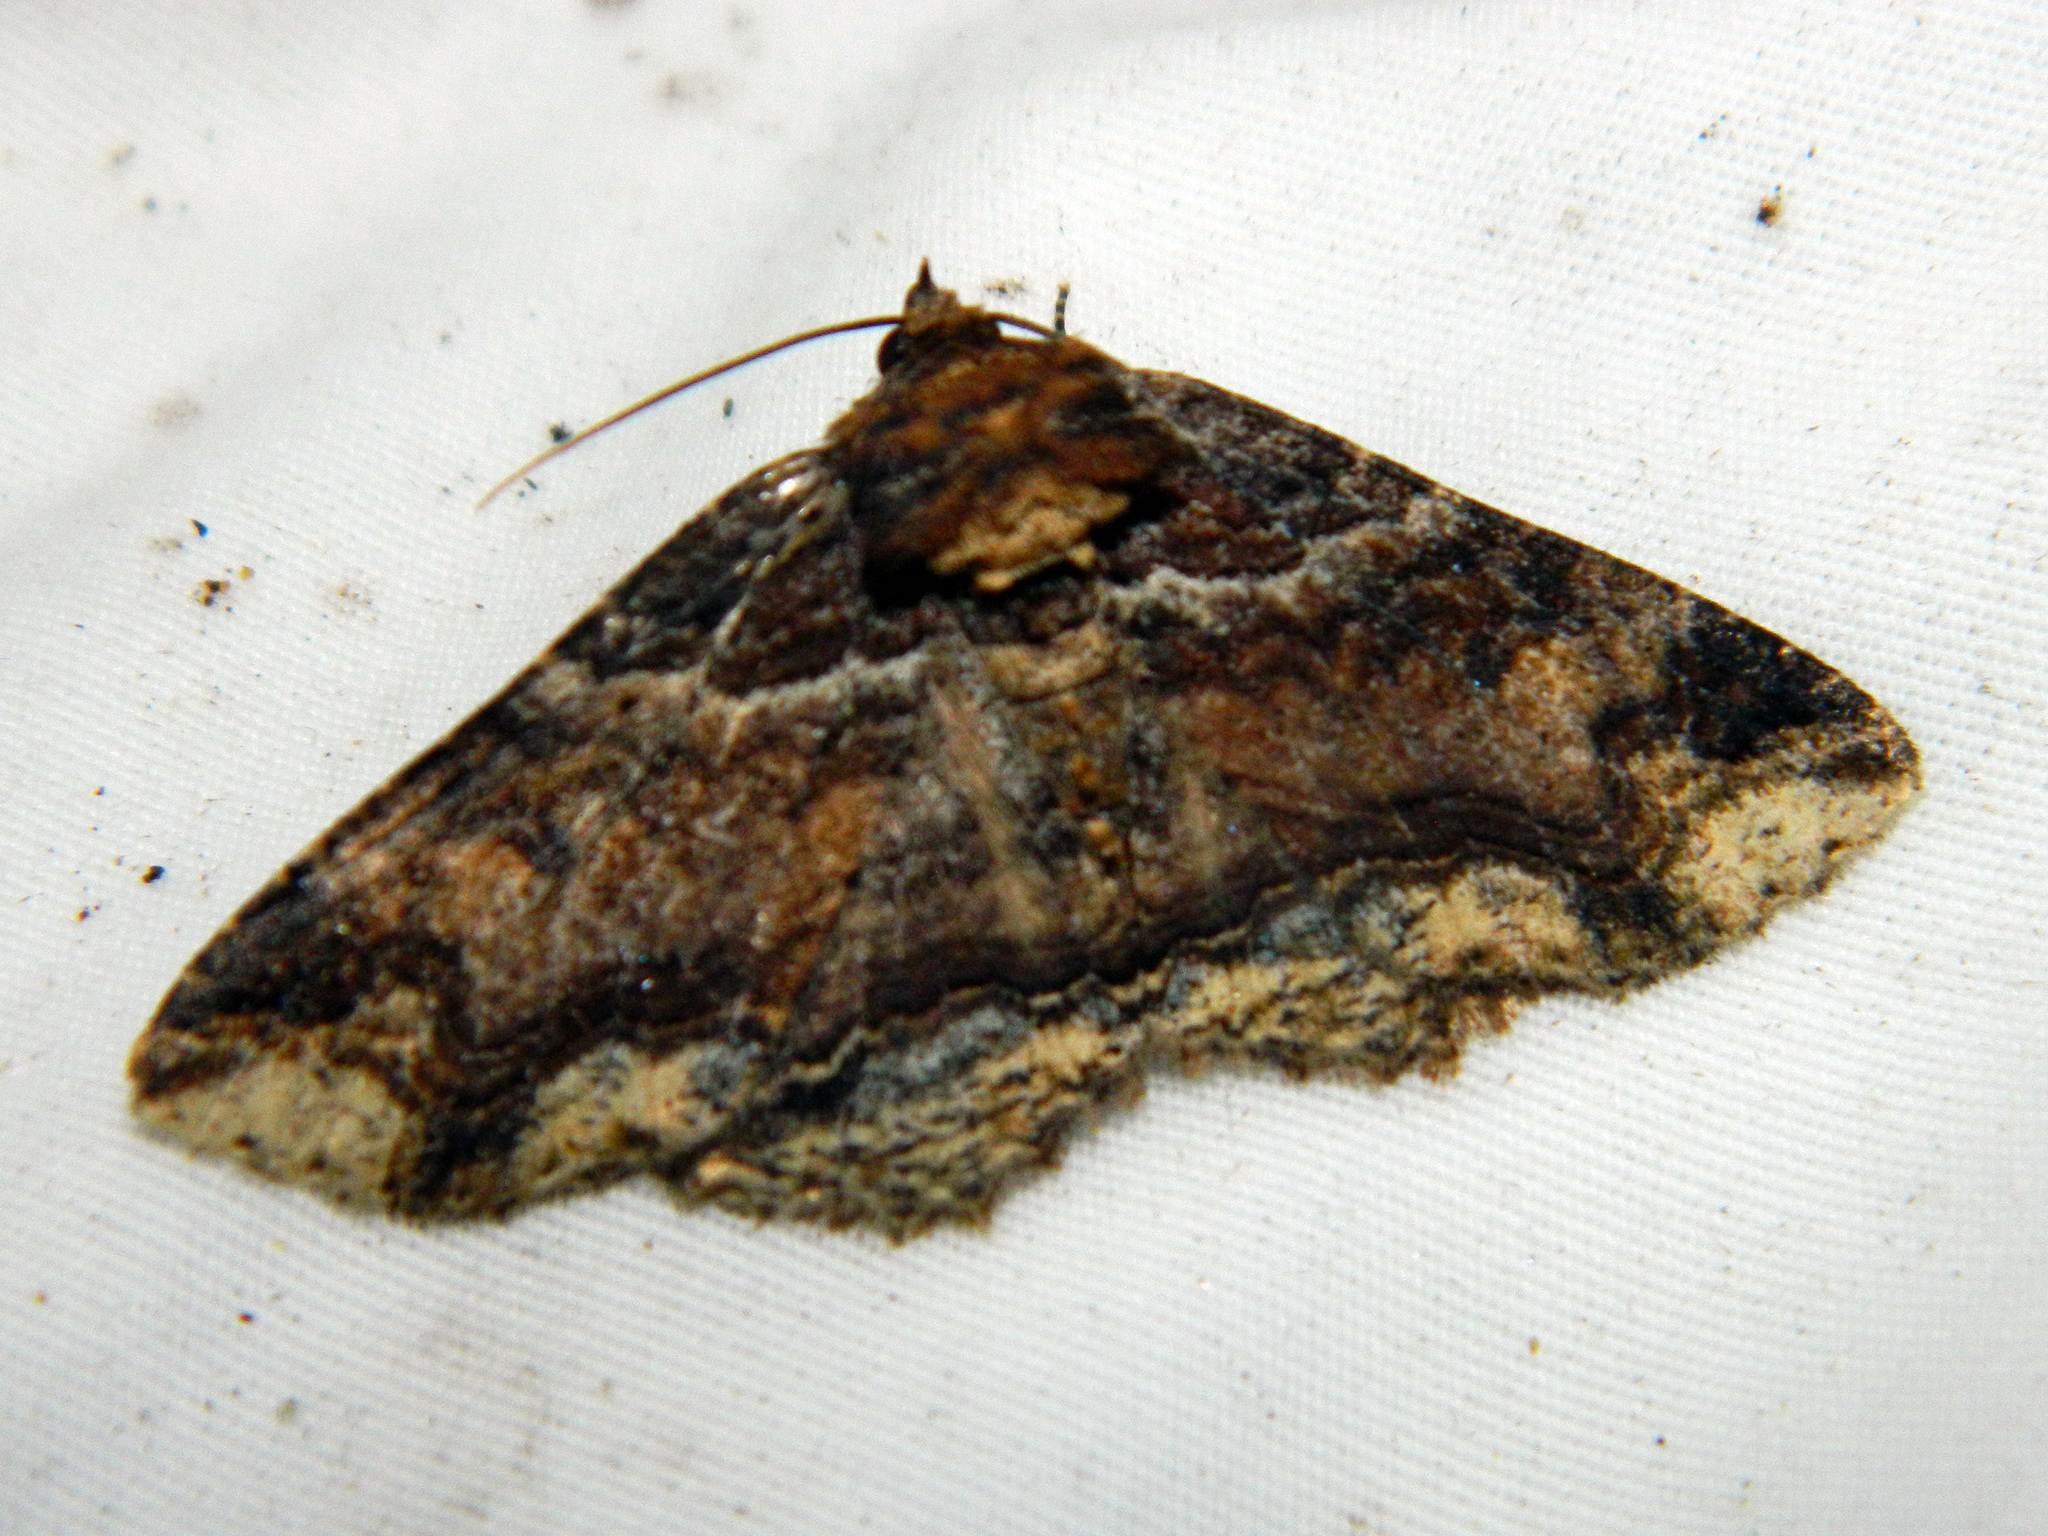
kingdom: Animalia
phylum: Arthropoda
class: Insecta
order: Lepidoptera
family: Erebidae
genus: Zale
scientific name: Zale minerea
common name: Colorful zale moth
